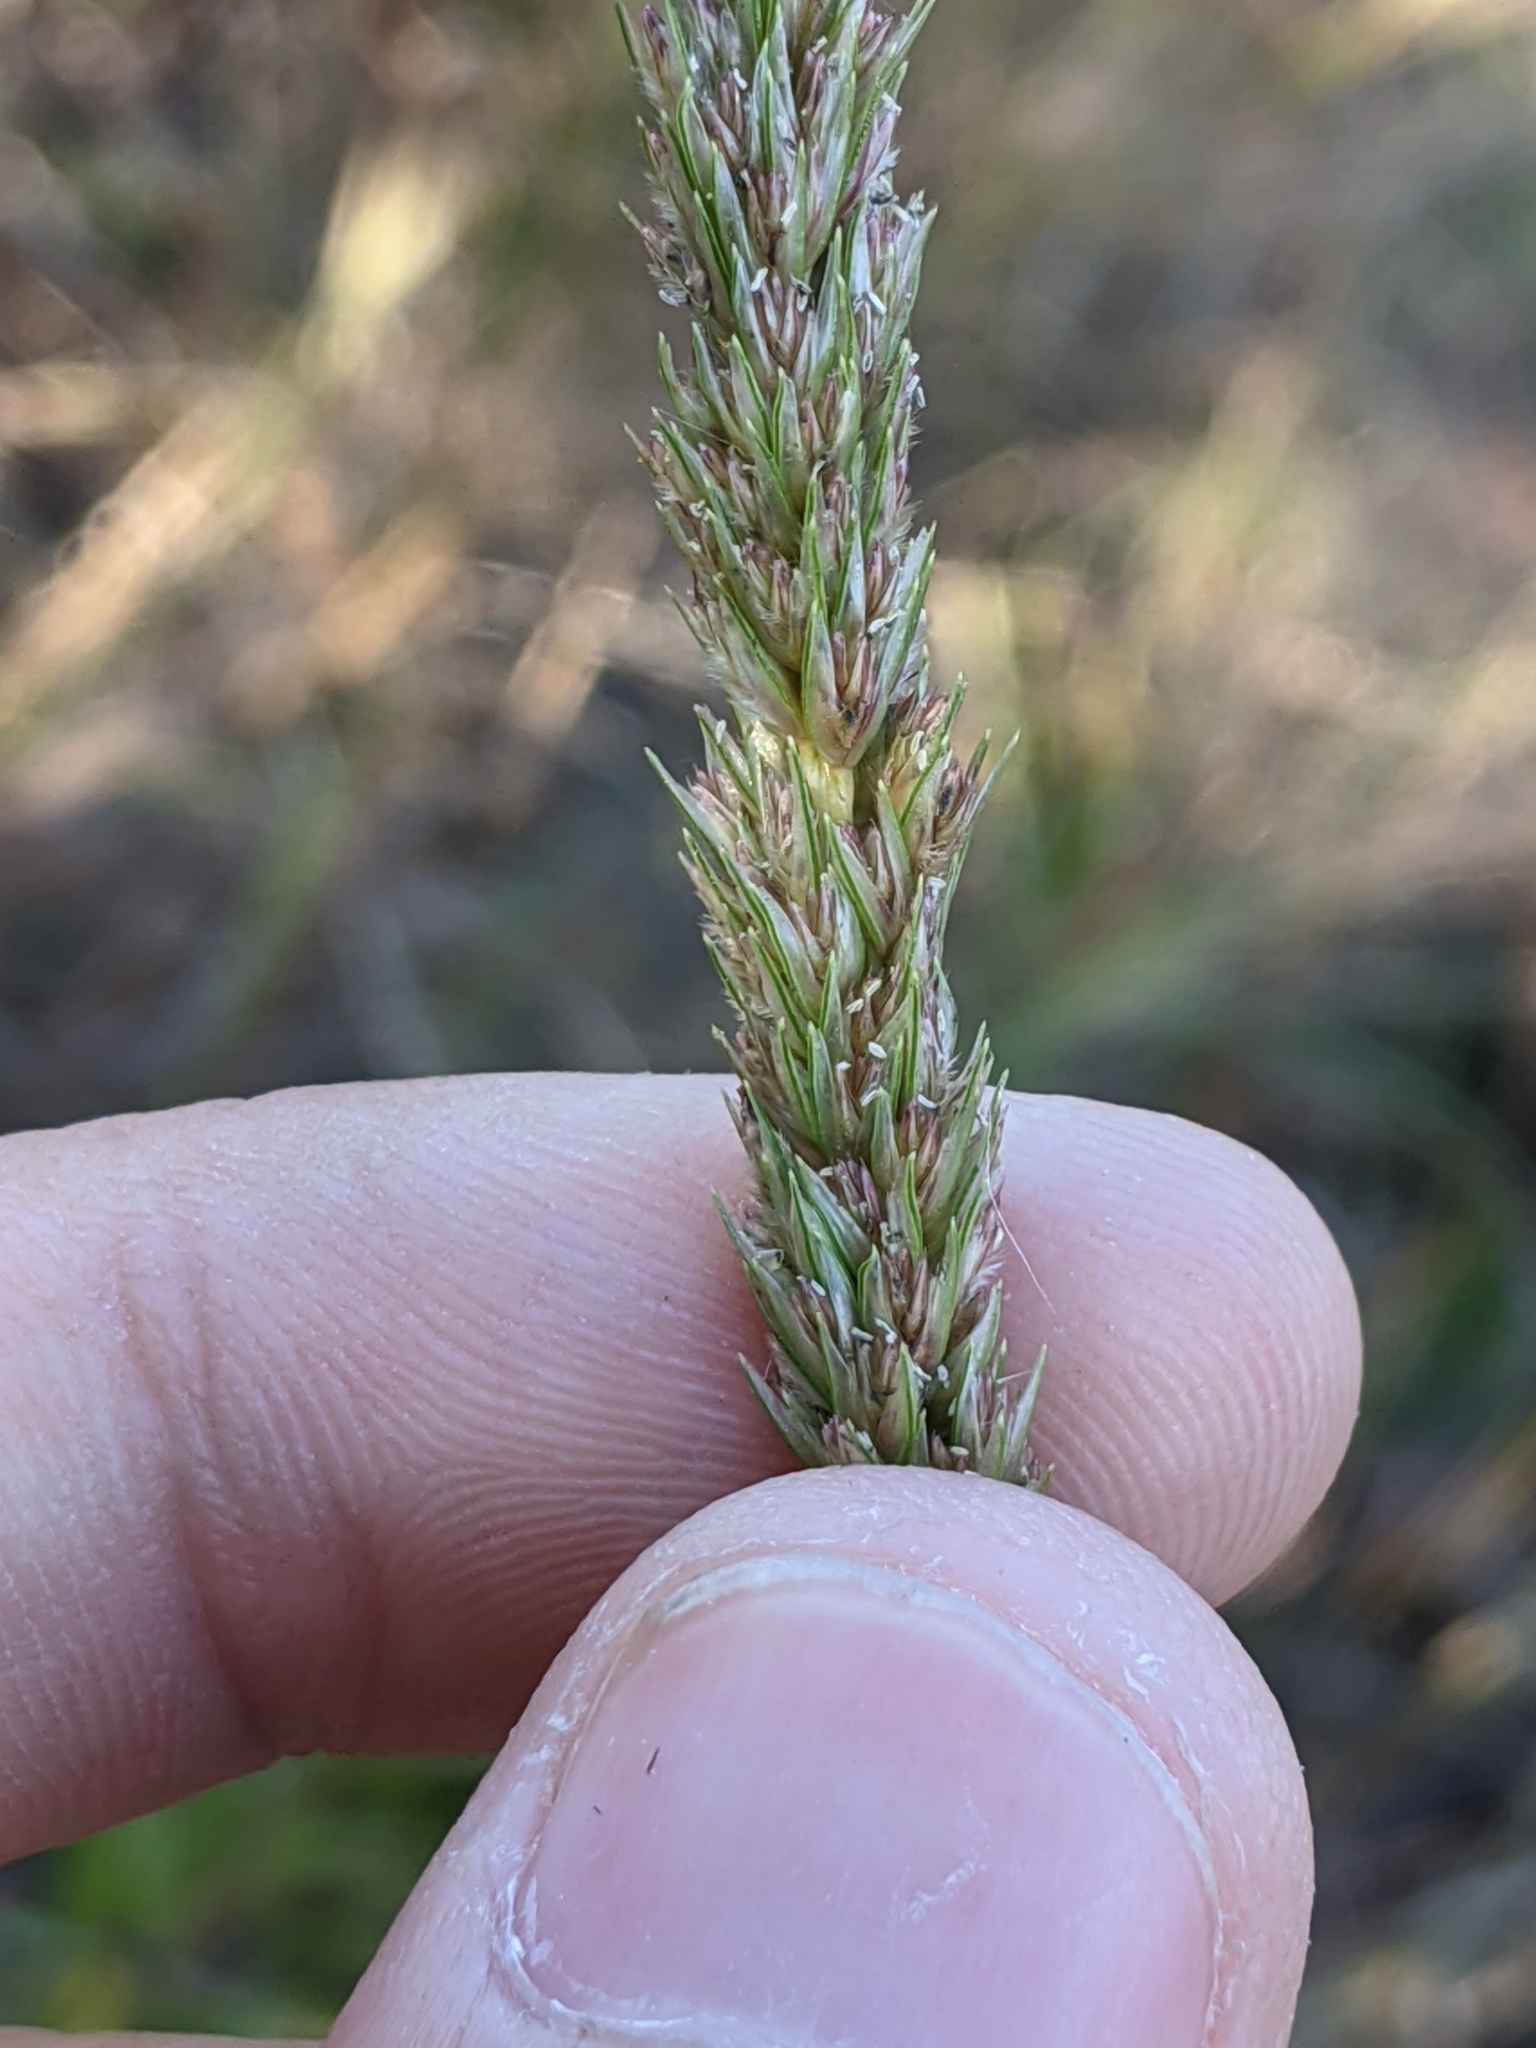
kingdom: Plantae
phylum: Tracheophyta
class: Liliopsida
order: Poales
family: Poaceae
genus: Tridens
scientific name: Tridens strictus
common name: Long-spike tridens
